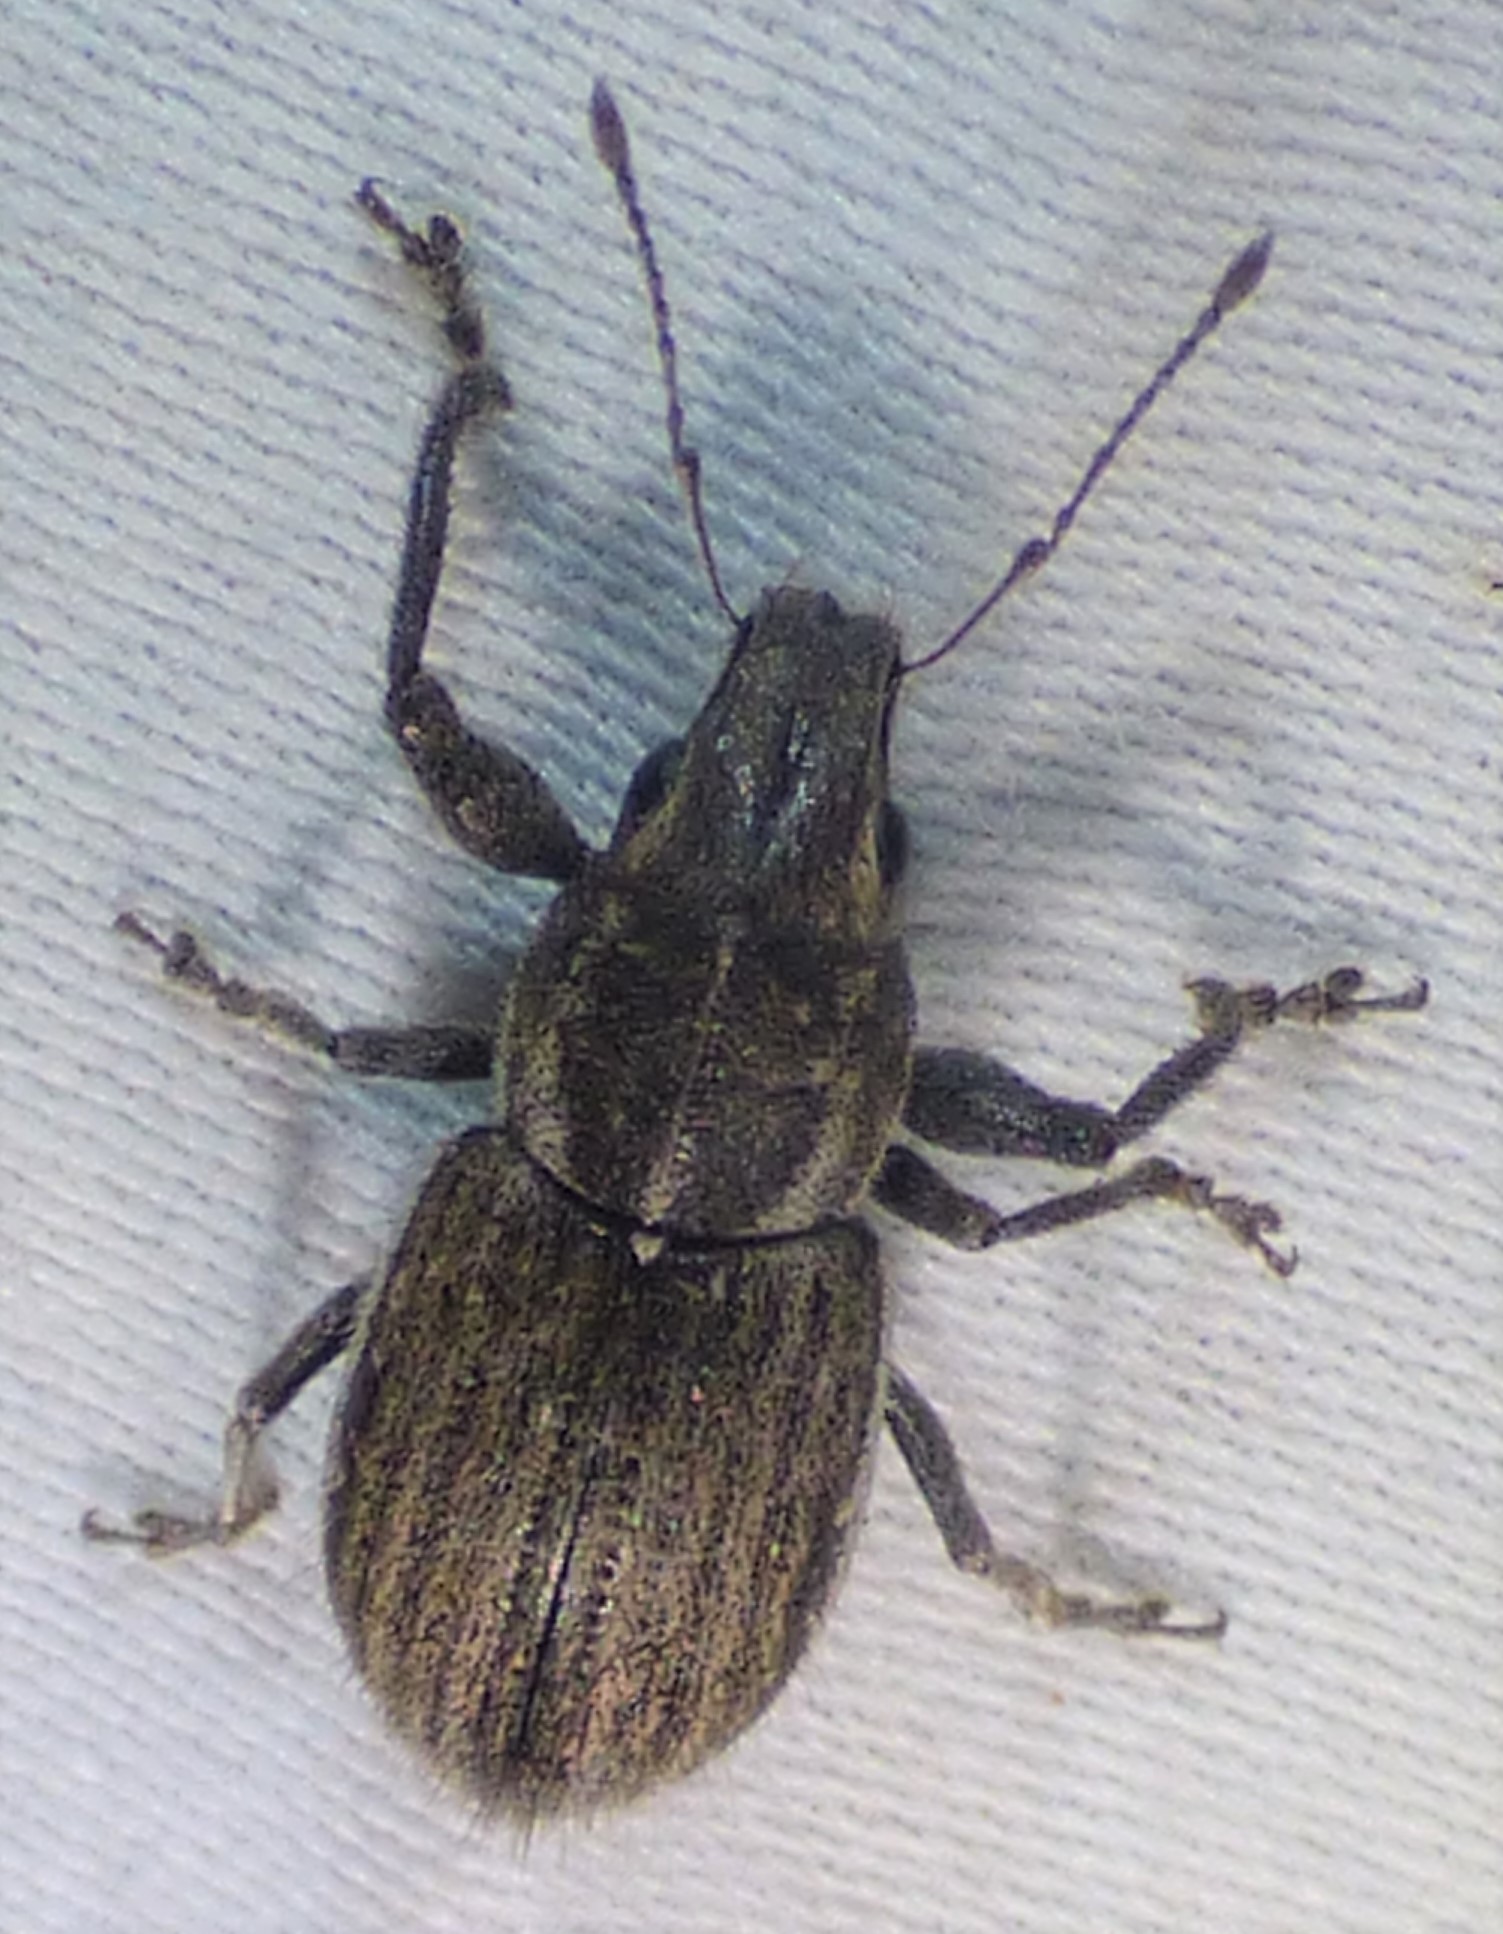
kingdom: Animalia
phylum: Arthropoda
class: Insecta
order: Coleoptera
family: Curculionidae
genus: Naupactus
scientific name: Naupactus leucoloma
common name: Whitefringed beetle
